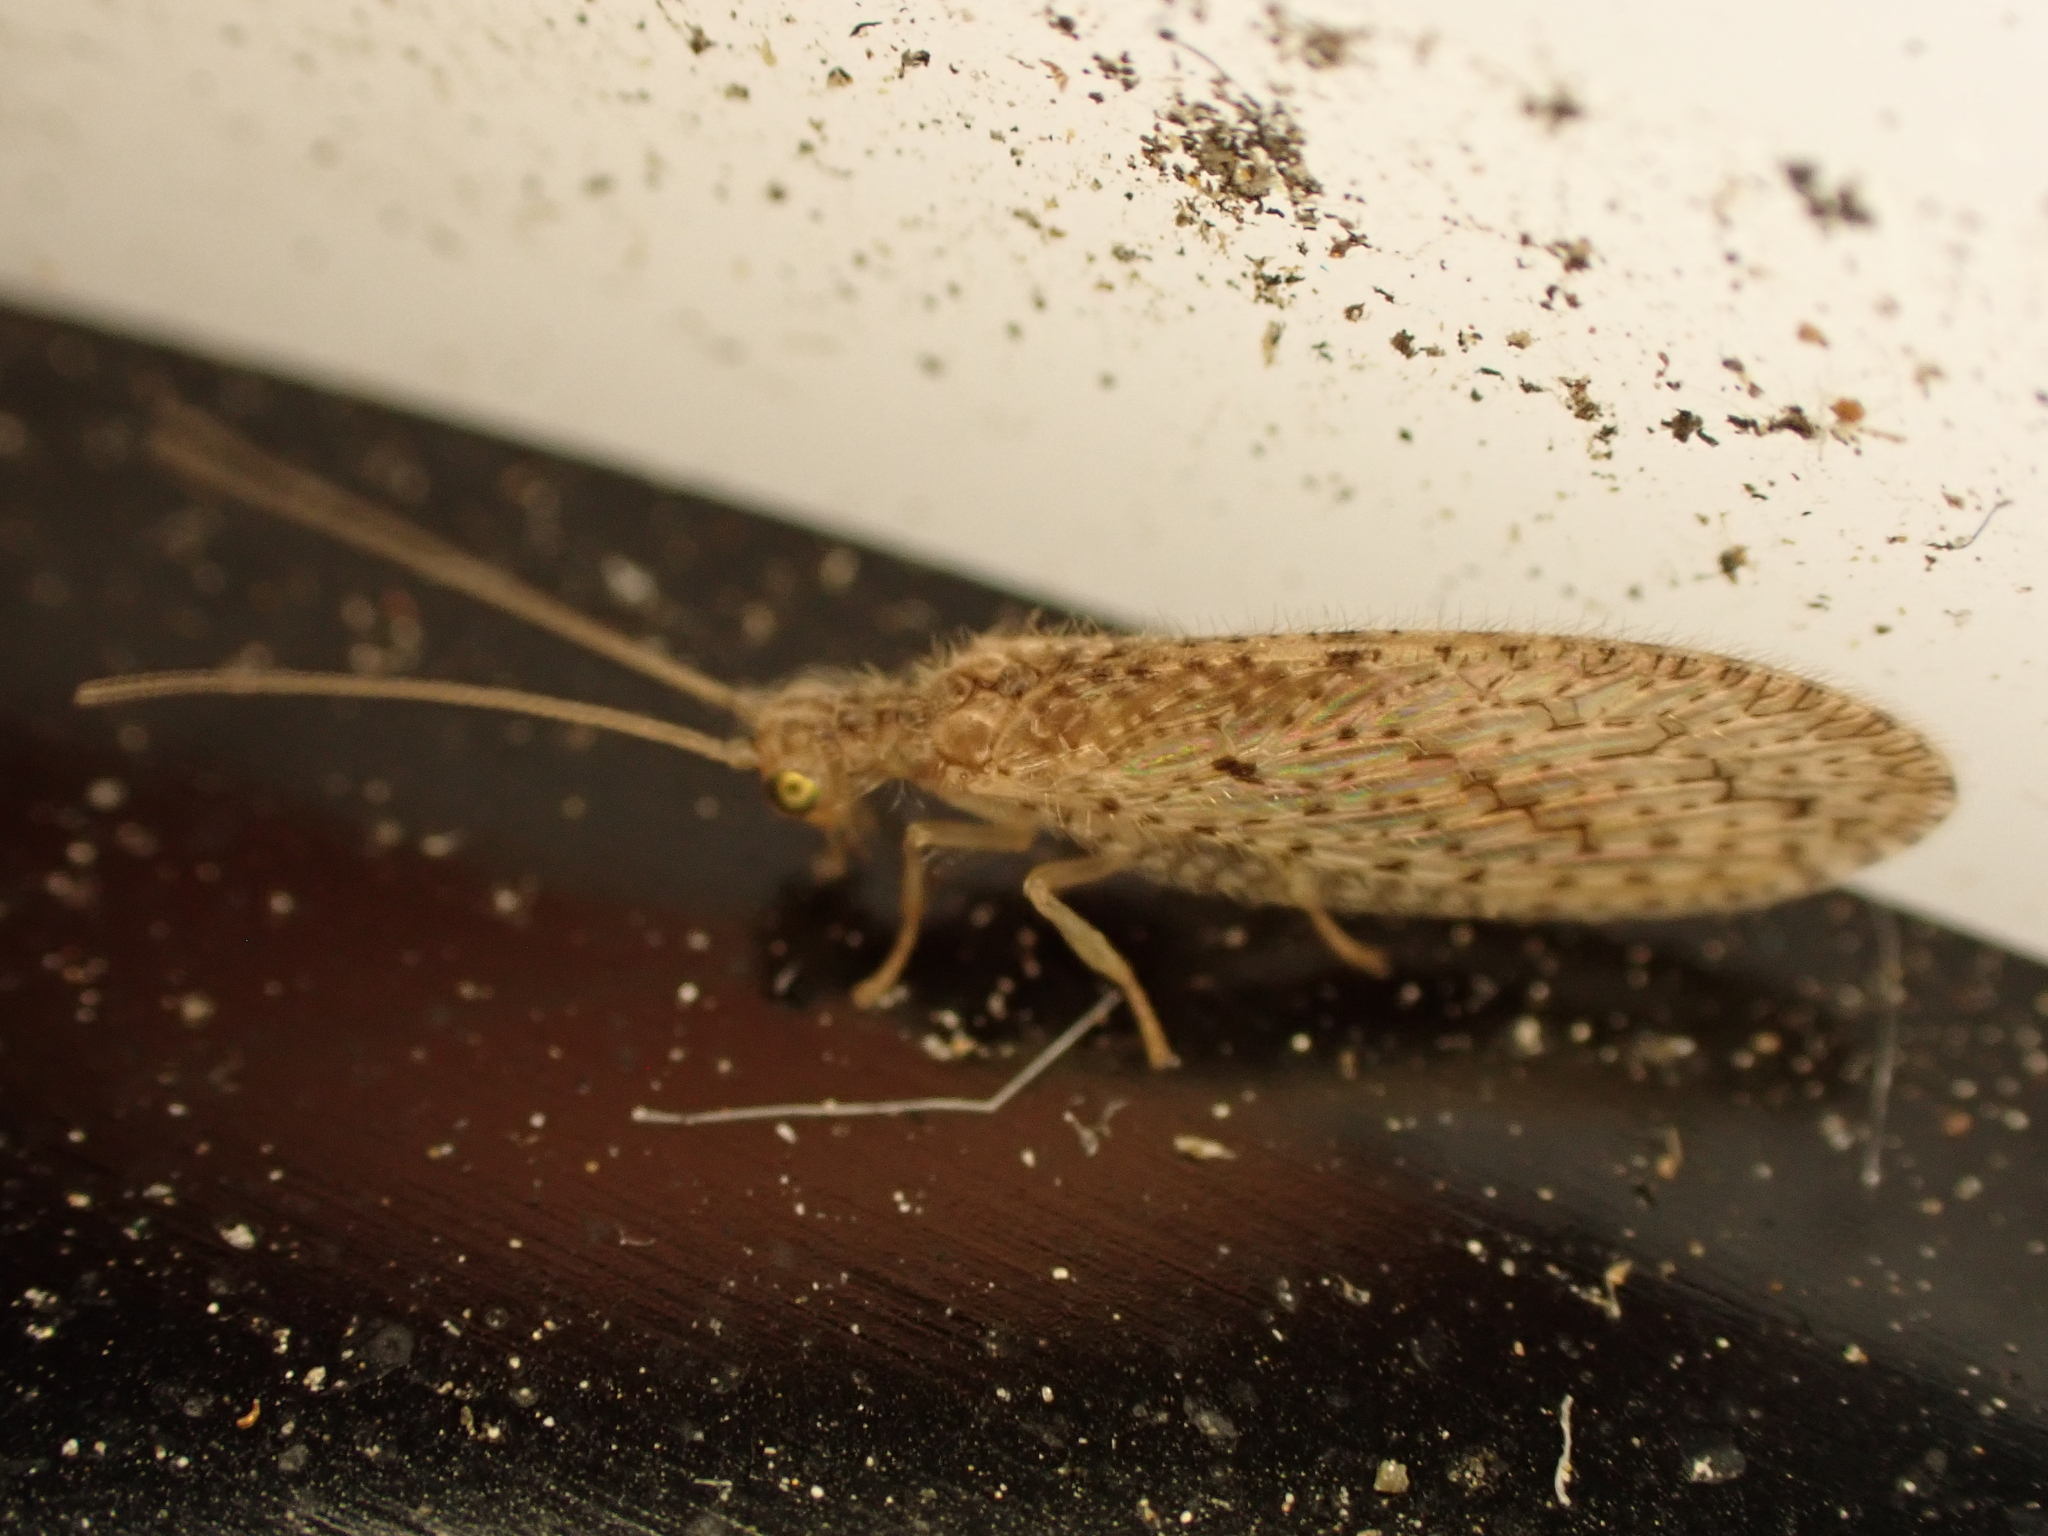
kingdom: Animalia
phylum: Arthropoda
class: Insecta
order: Neuroptera
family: Hemerobiidae
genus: Micromus
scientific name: Micromus tasmaniae
